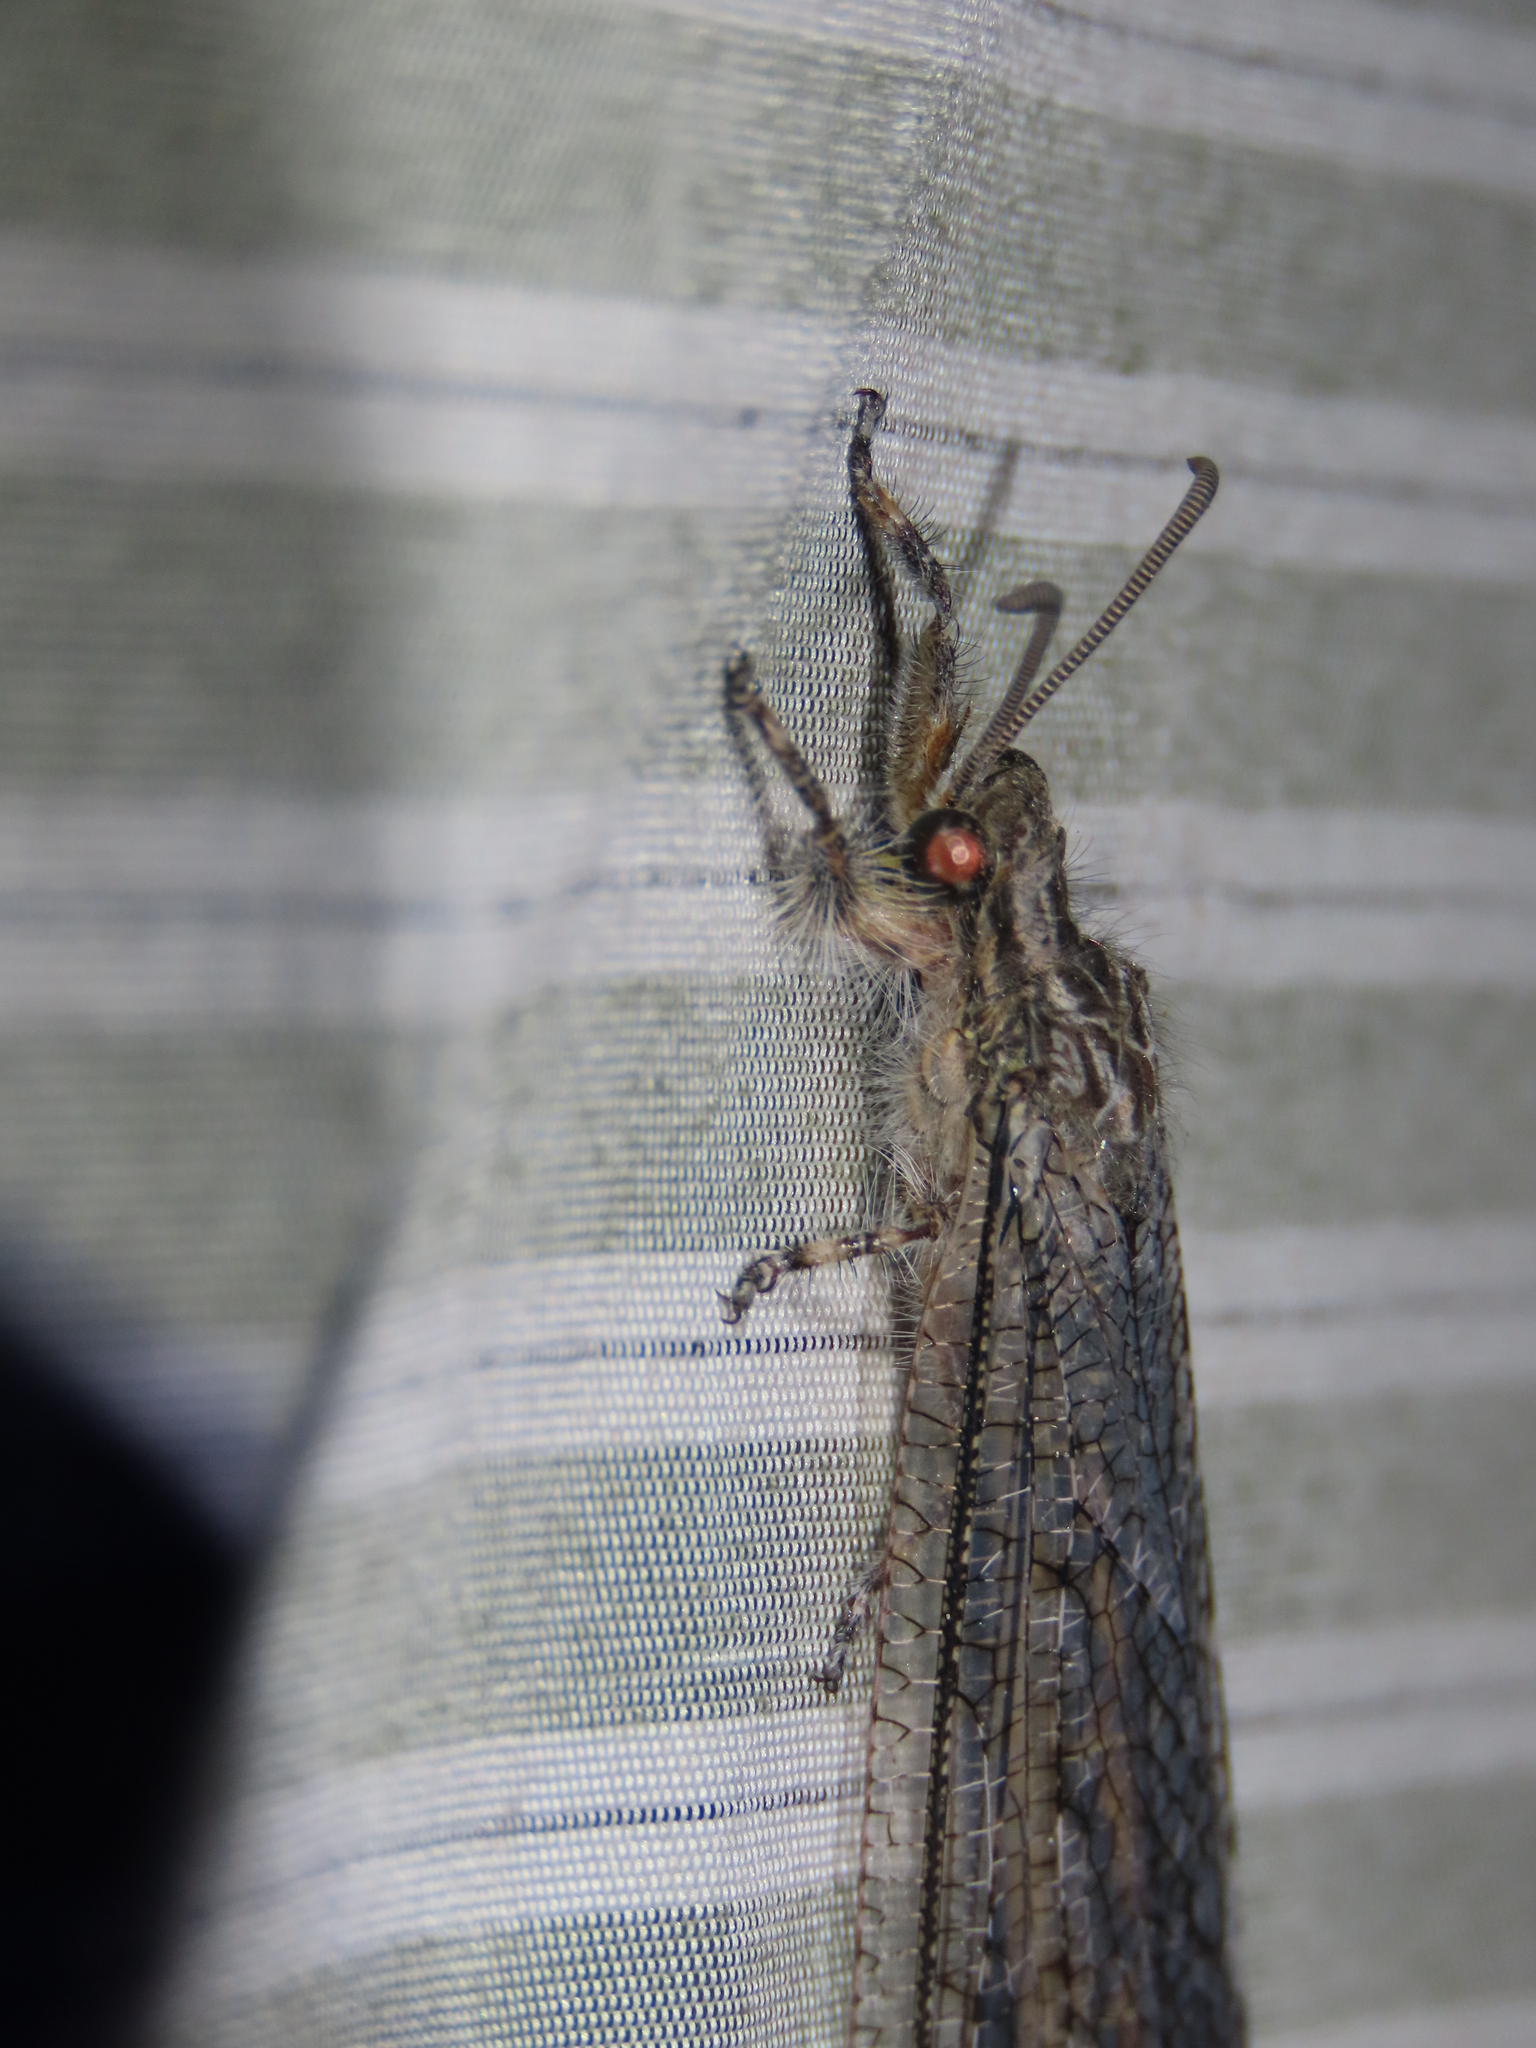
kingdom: Animalia
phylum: Arthropoda
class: Insecta
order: Neuroptera
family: Myrmeleontidae
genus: Vella
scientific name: Vella fallax
